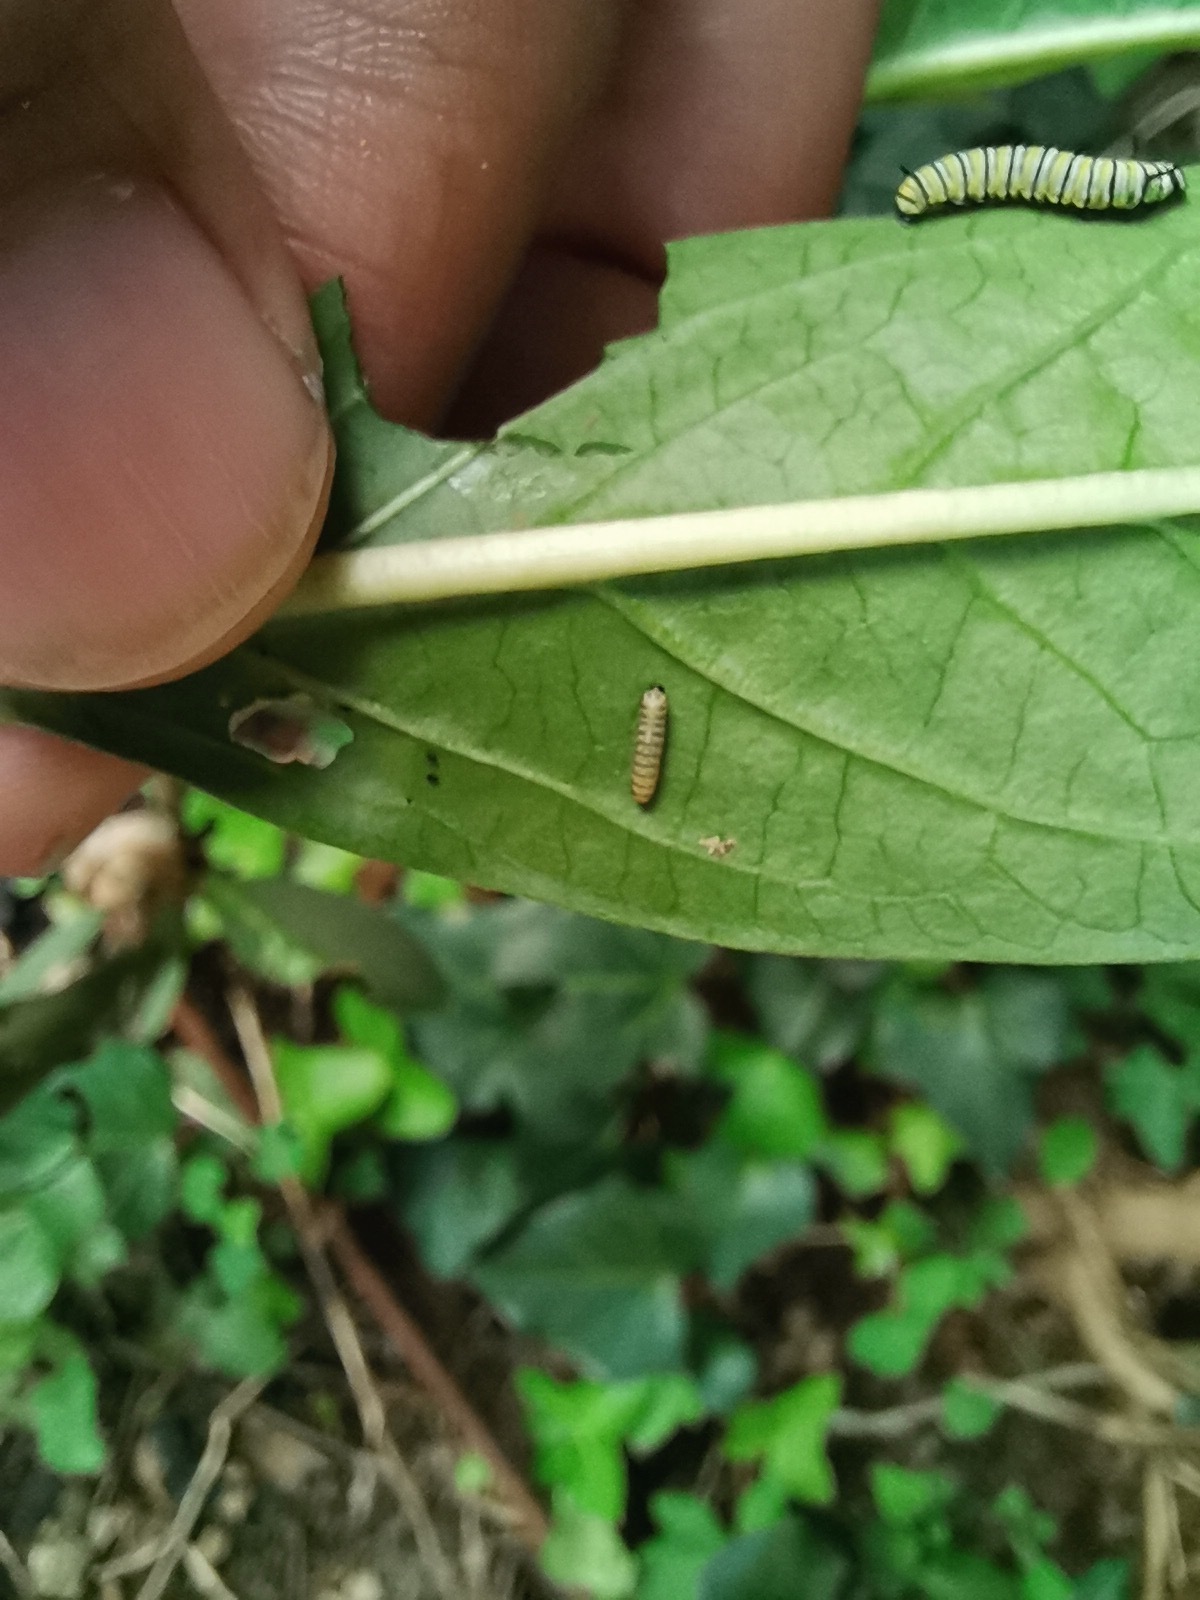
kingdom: Animalia
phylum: Arthropoda
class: Insecta
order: Lepidoptera
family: Nymphalidae
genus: Danaus
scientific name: Danaus plexippus
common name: Monarch
